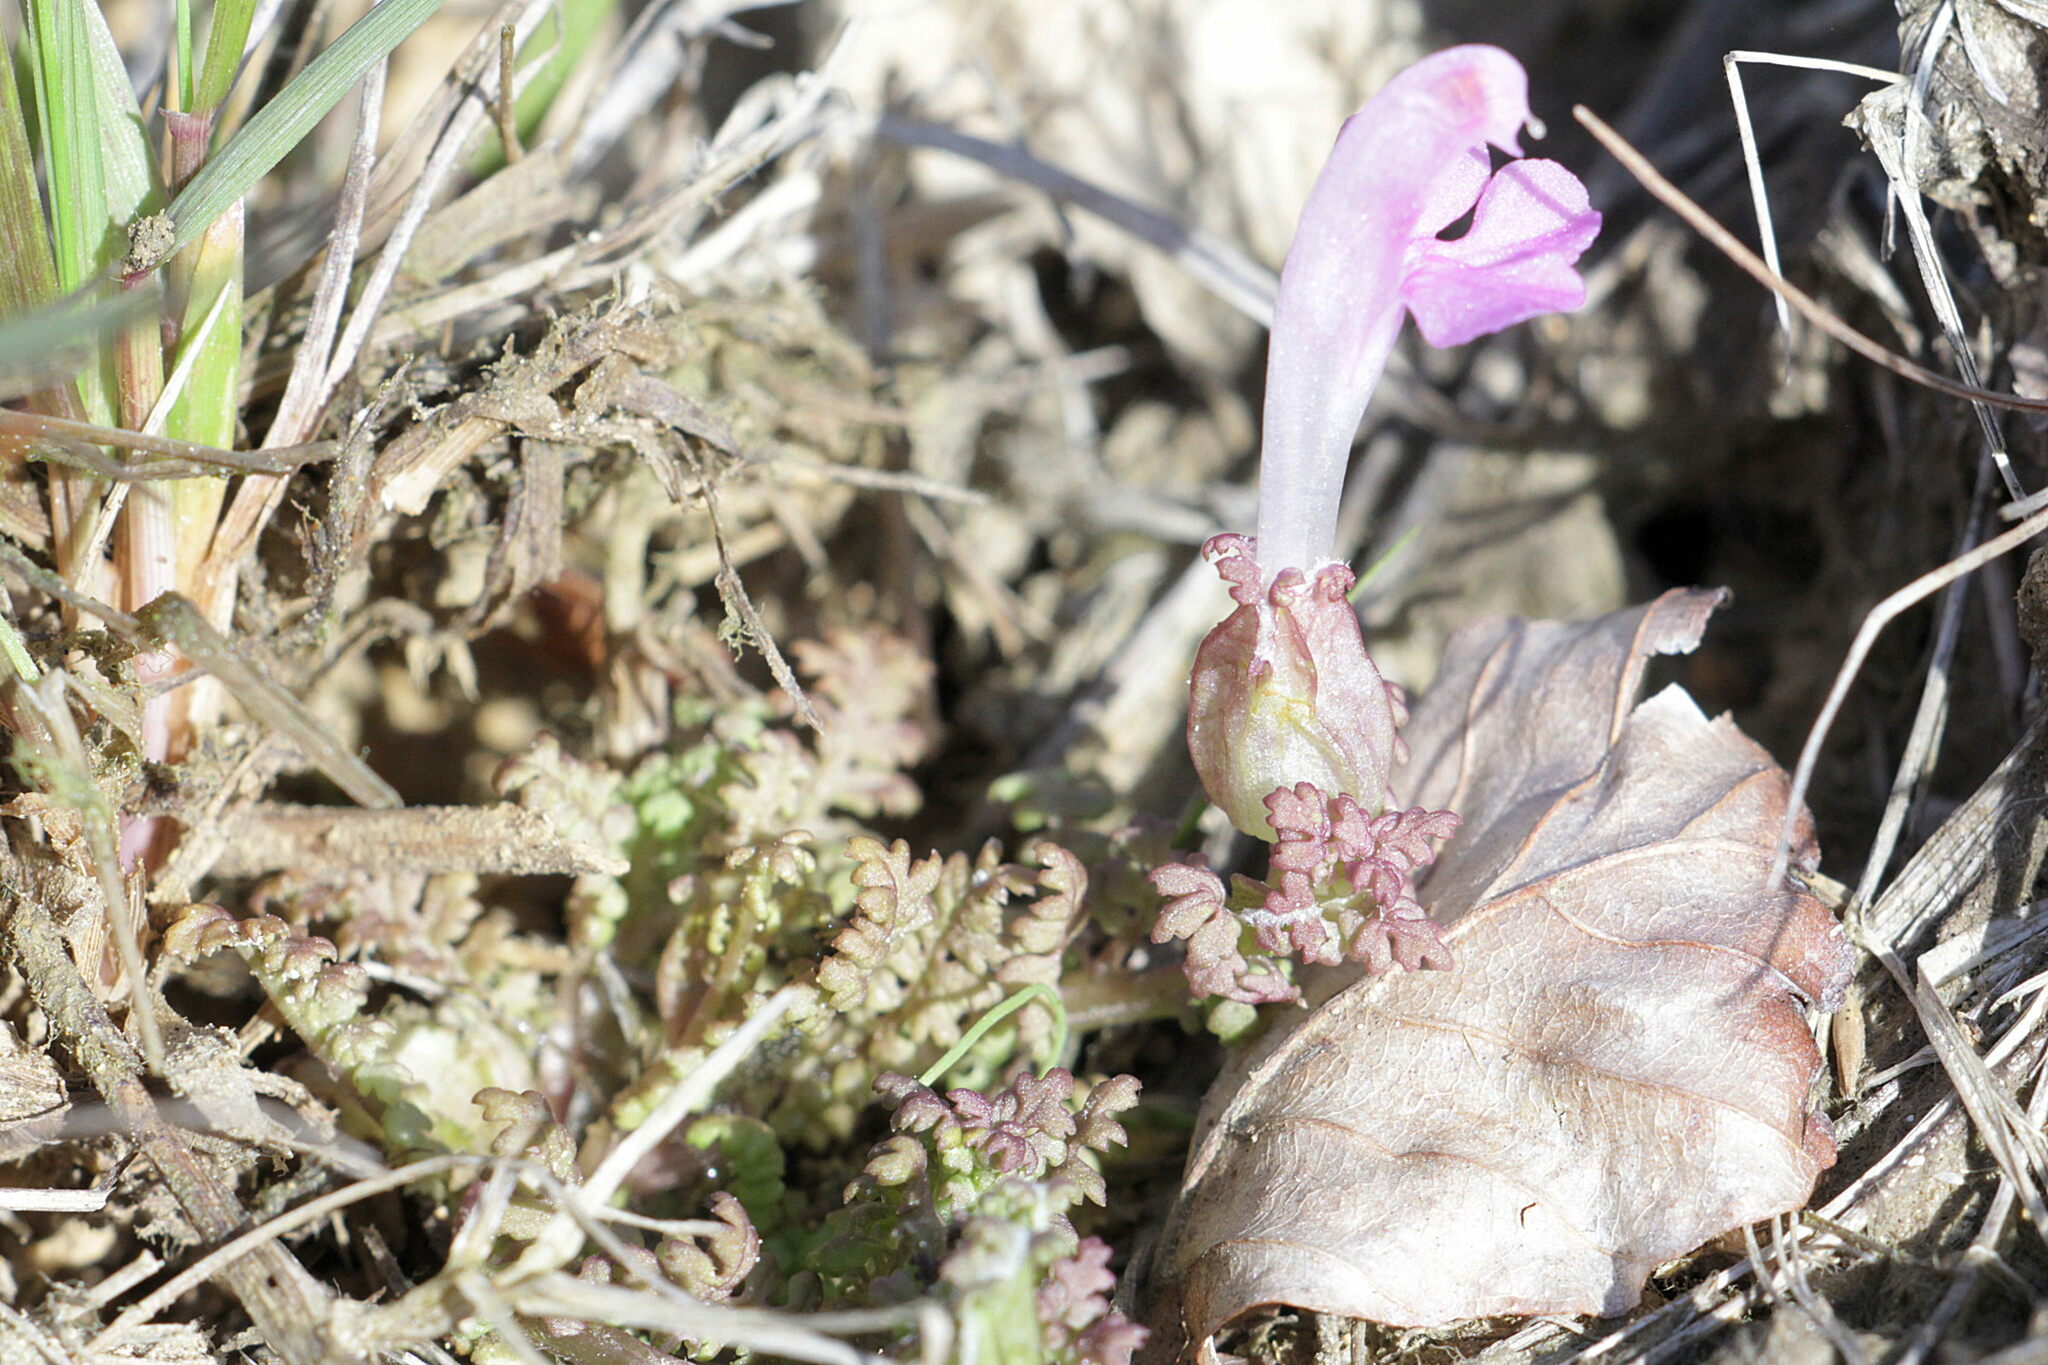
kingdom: Plantae
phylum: Tracheophyta
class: Magnoliopsida
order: Lamiales
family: Orobanchaceae
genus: Pedicularis
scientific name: Pedicularis sylvatica
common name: Lousewort
